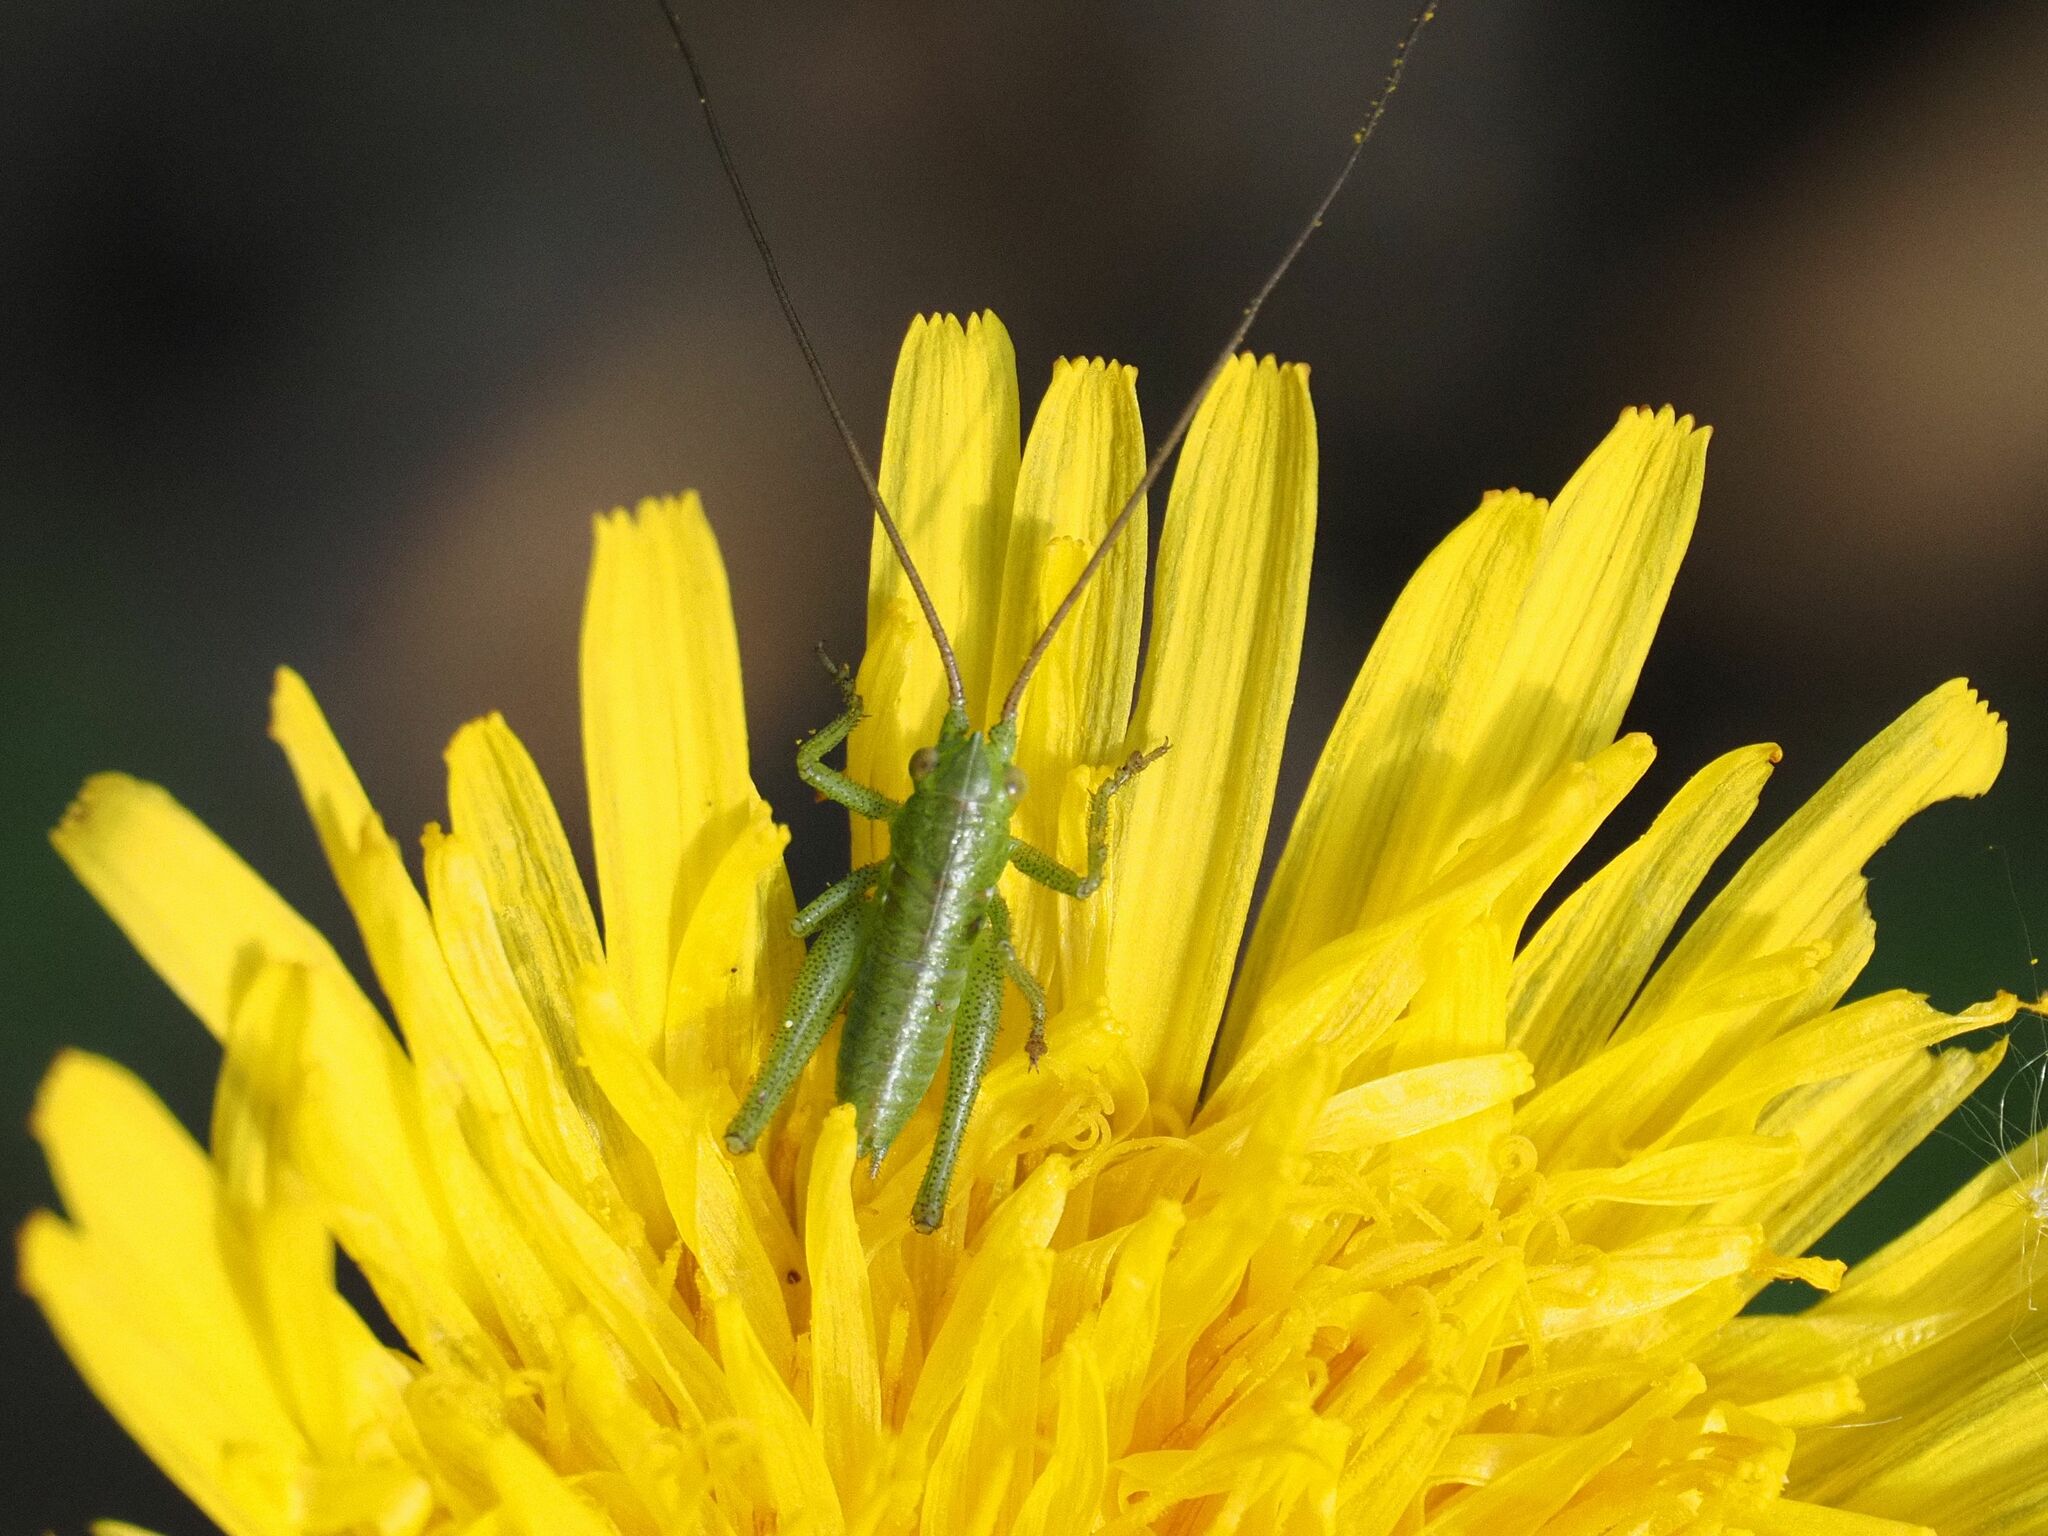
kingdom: Animalia
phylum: Arthropoda
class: Insecta
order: Orthoptera
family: Tettigoniidae
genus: Tettigonia
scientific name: Tettigonia
